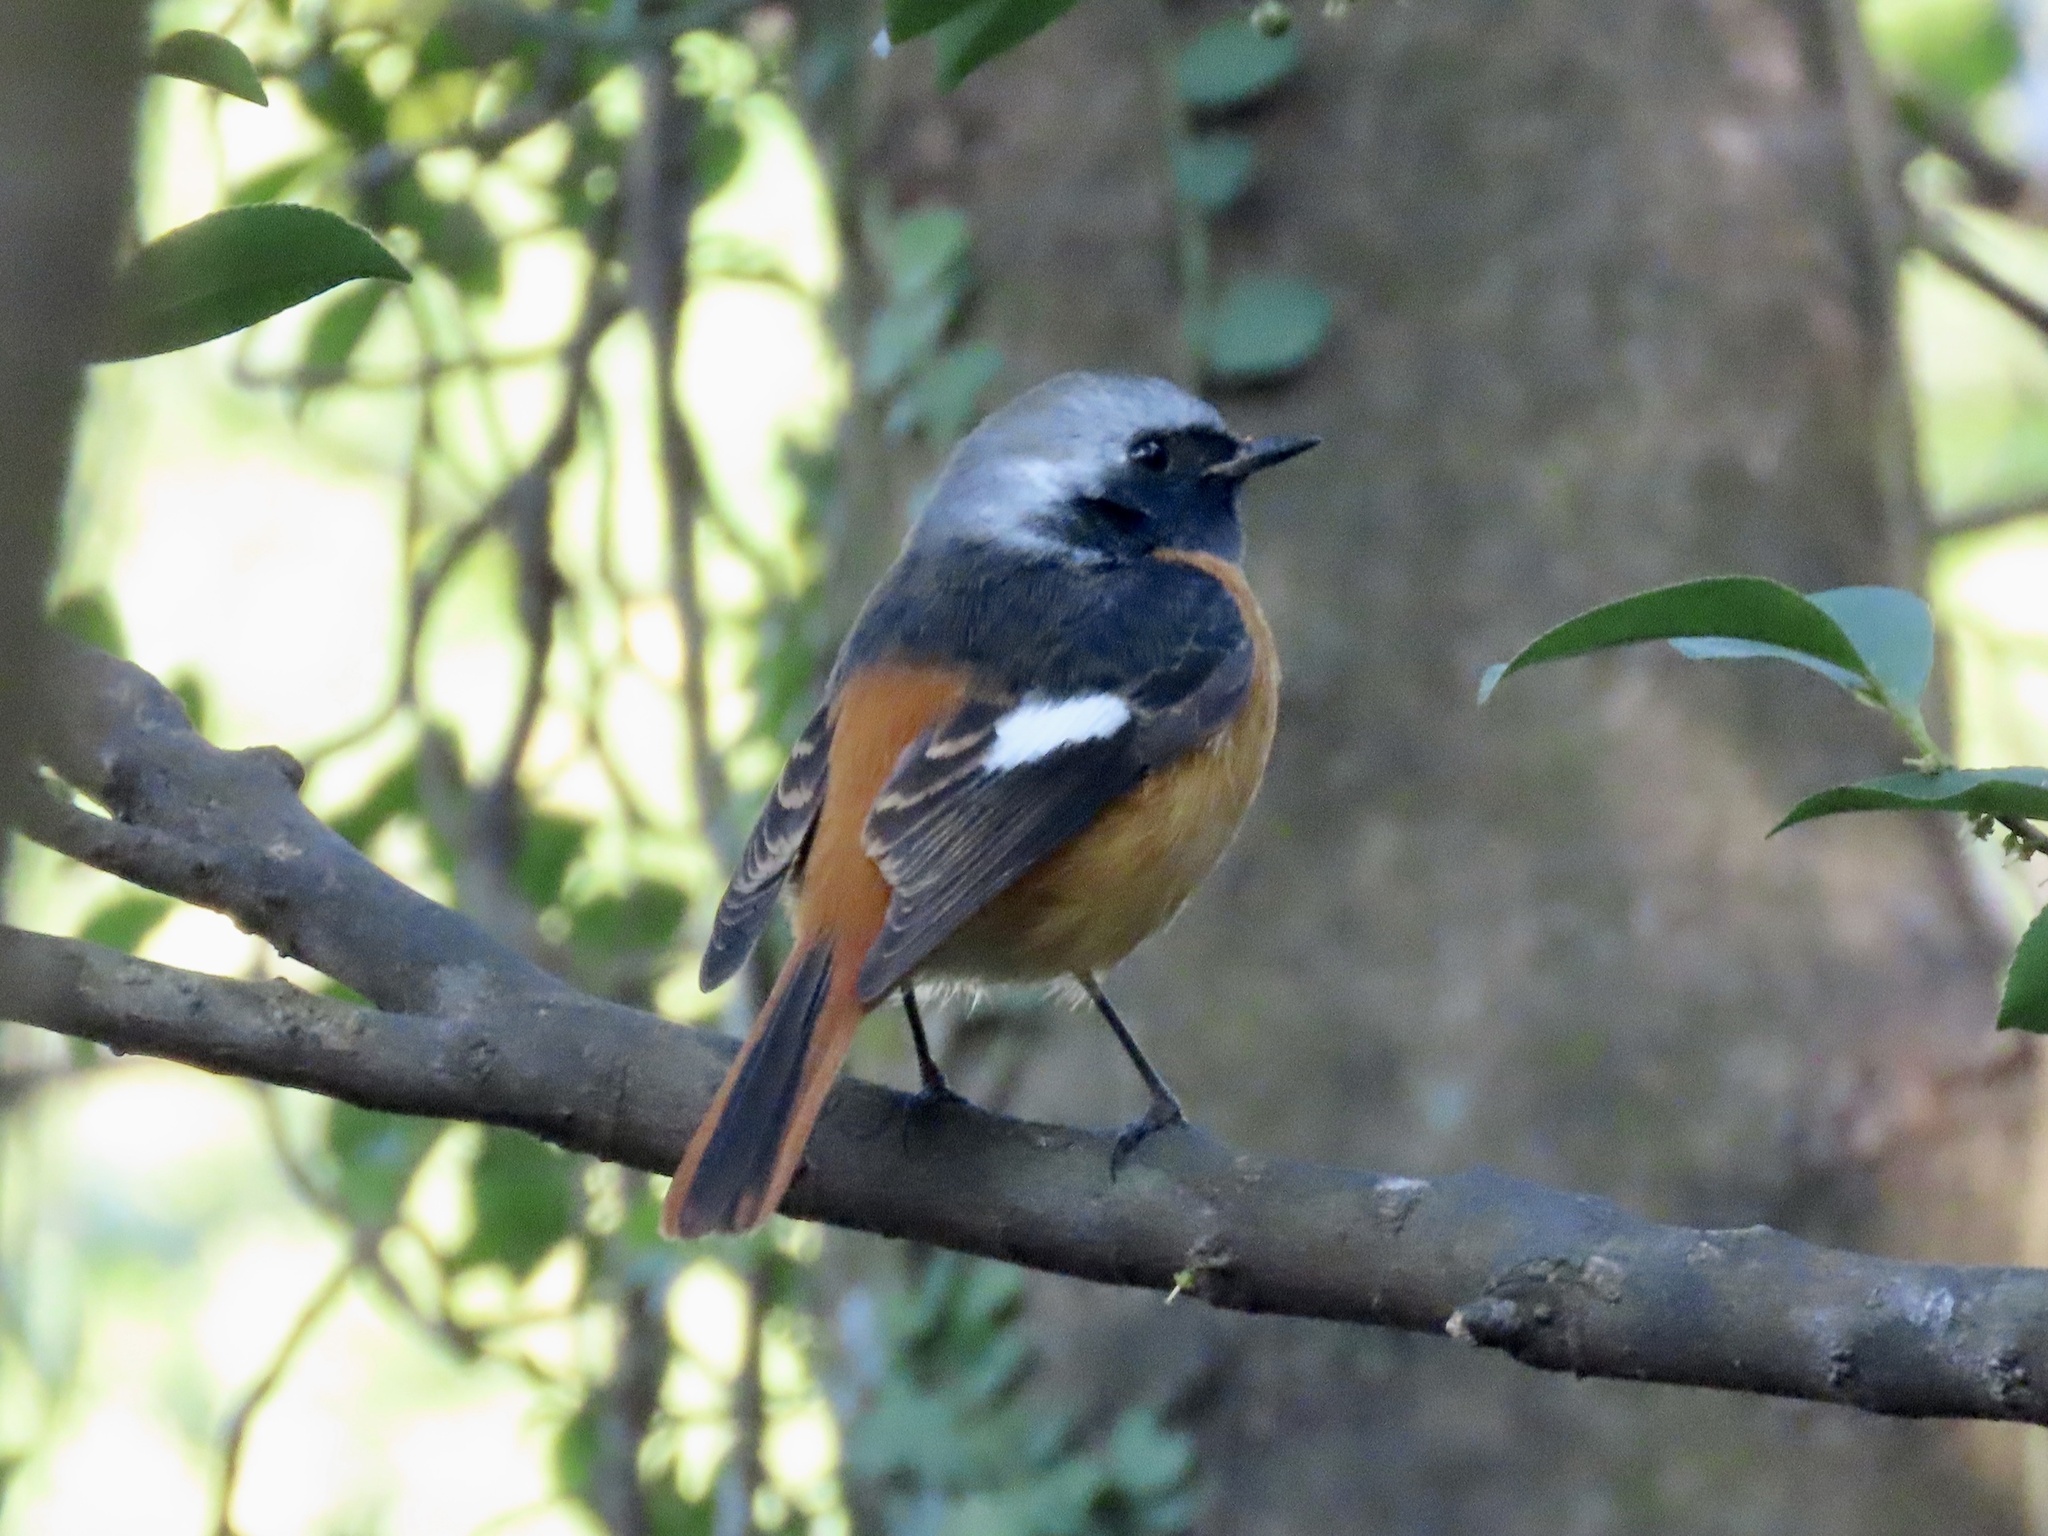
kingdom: Animalia
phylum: Chordata
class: Aves
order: Passeriformes
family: Muscicapidae
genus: Phoenicurus
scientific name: Phoenicurus auroreus
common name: Daurian redstart
